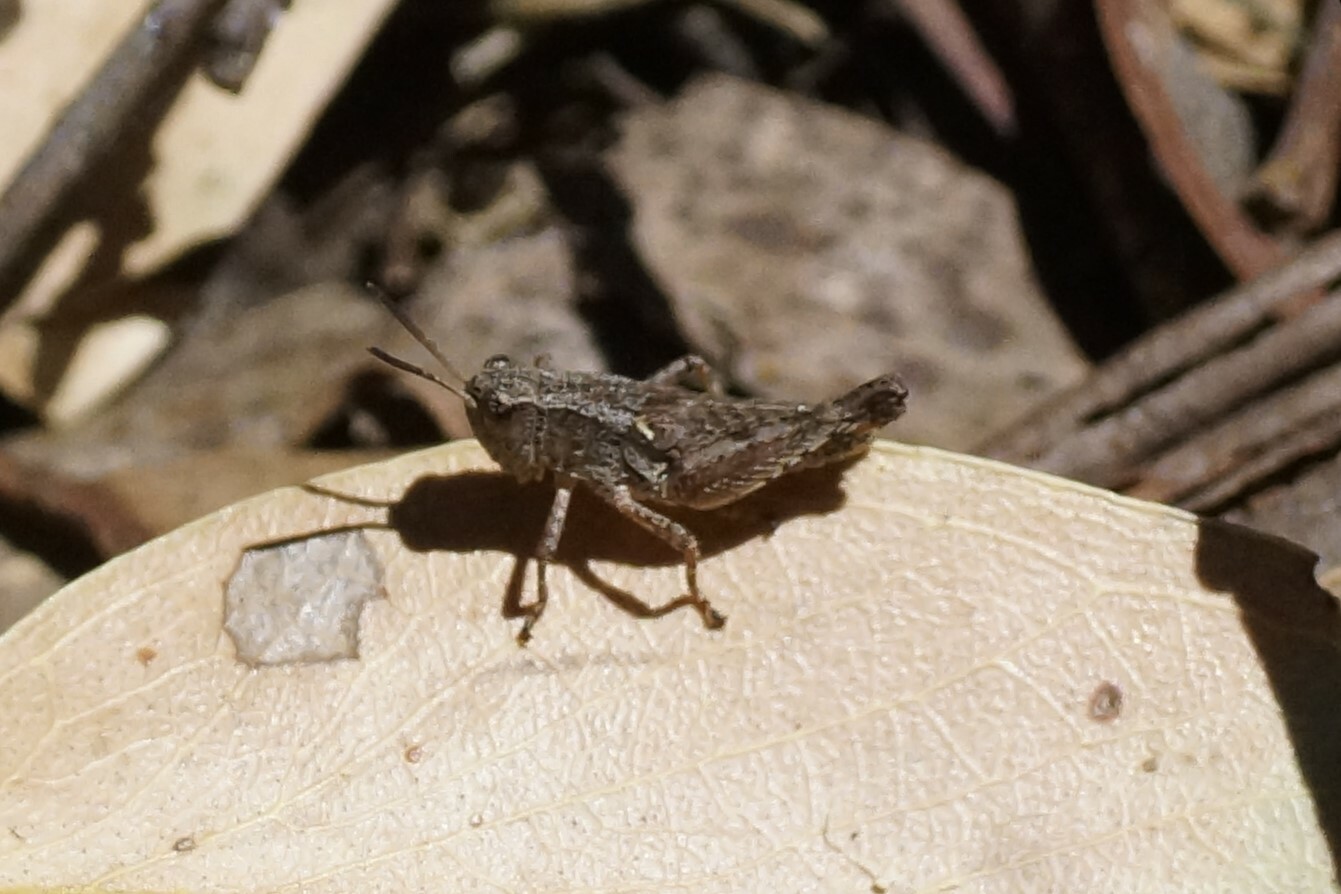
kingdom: Animalia
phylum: Arthropoda
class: Insecta
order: Orthoptera
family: Acrididae
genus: Phaulacridium
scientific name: Phaulacridium vittatum
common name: Wingless grasshopper
